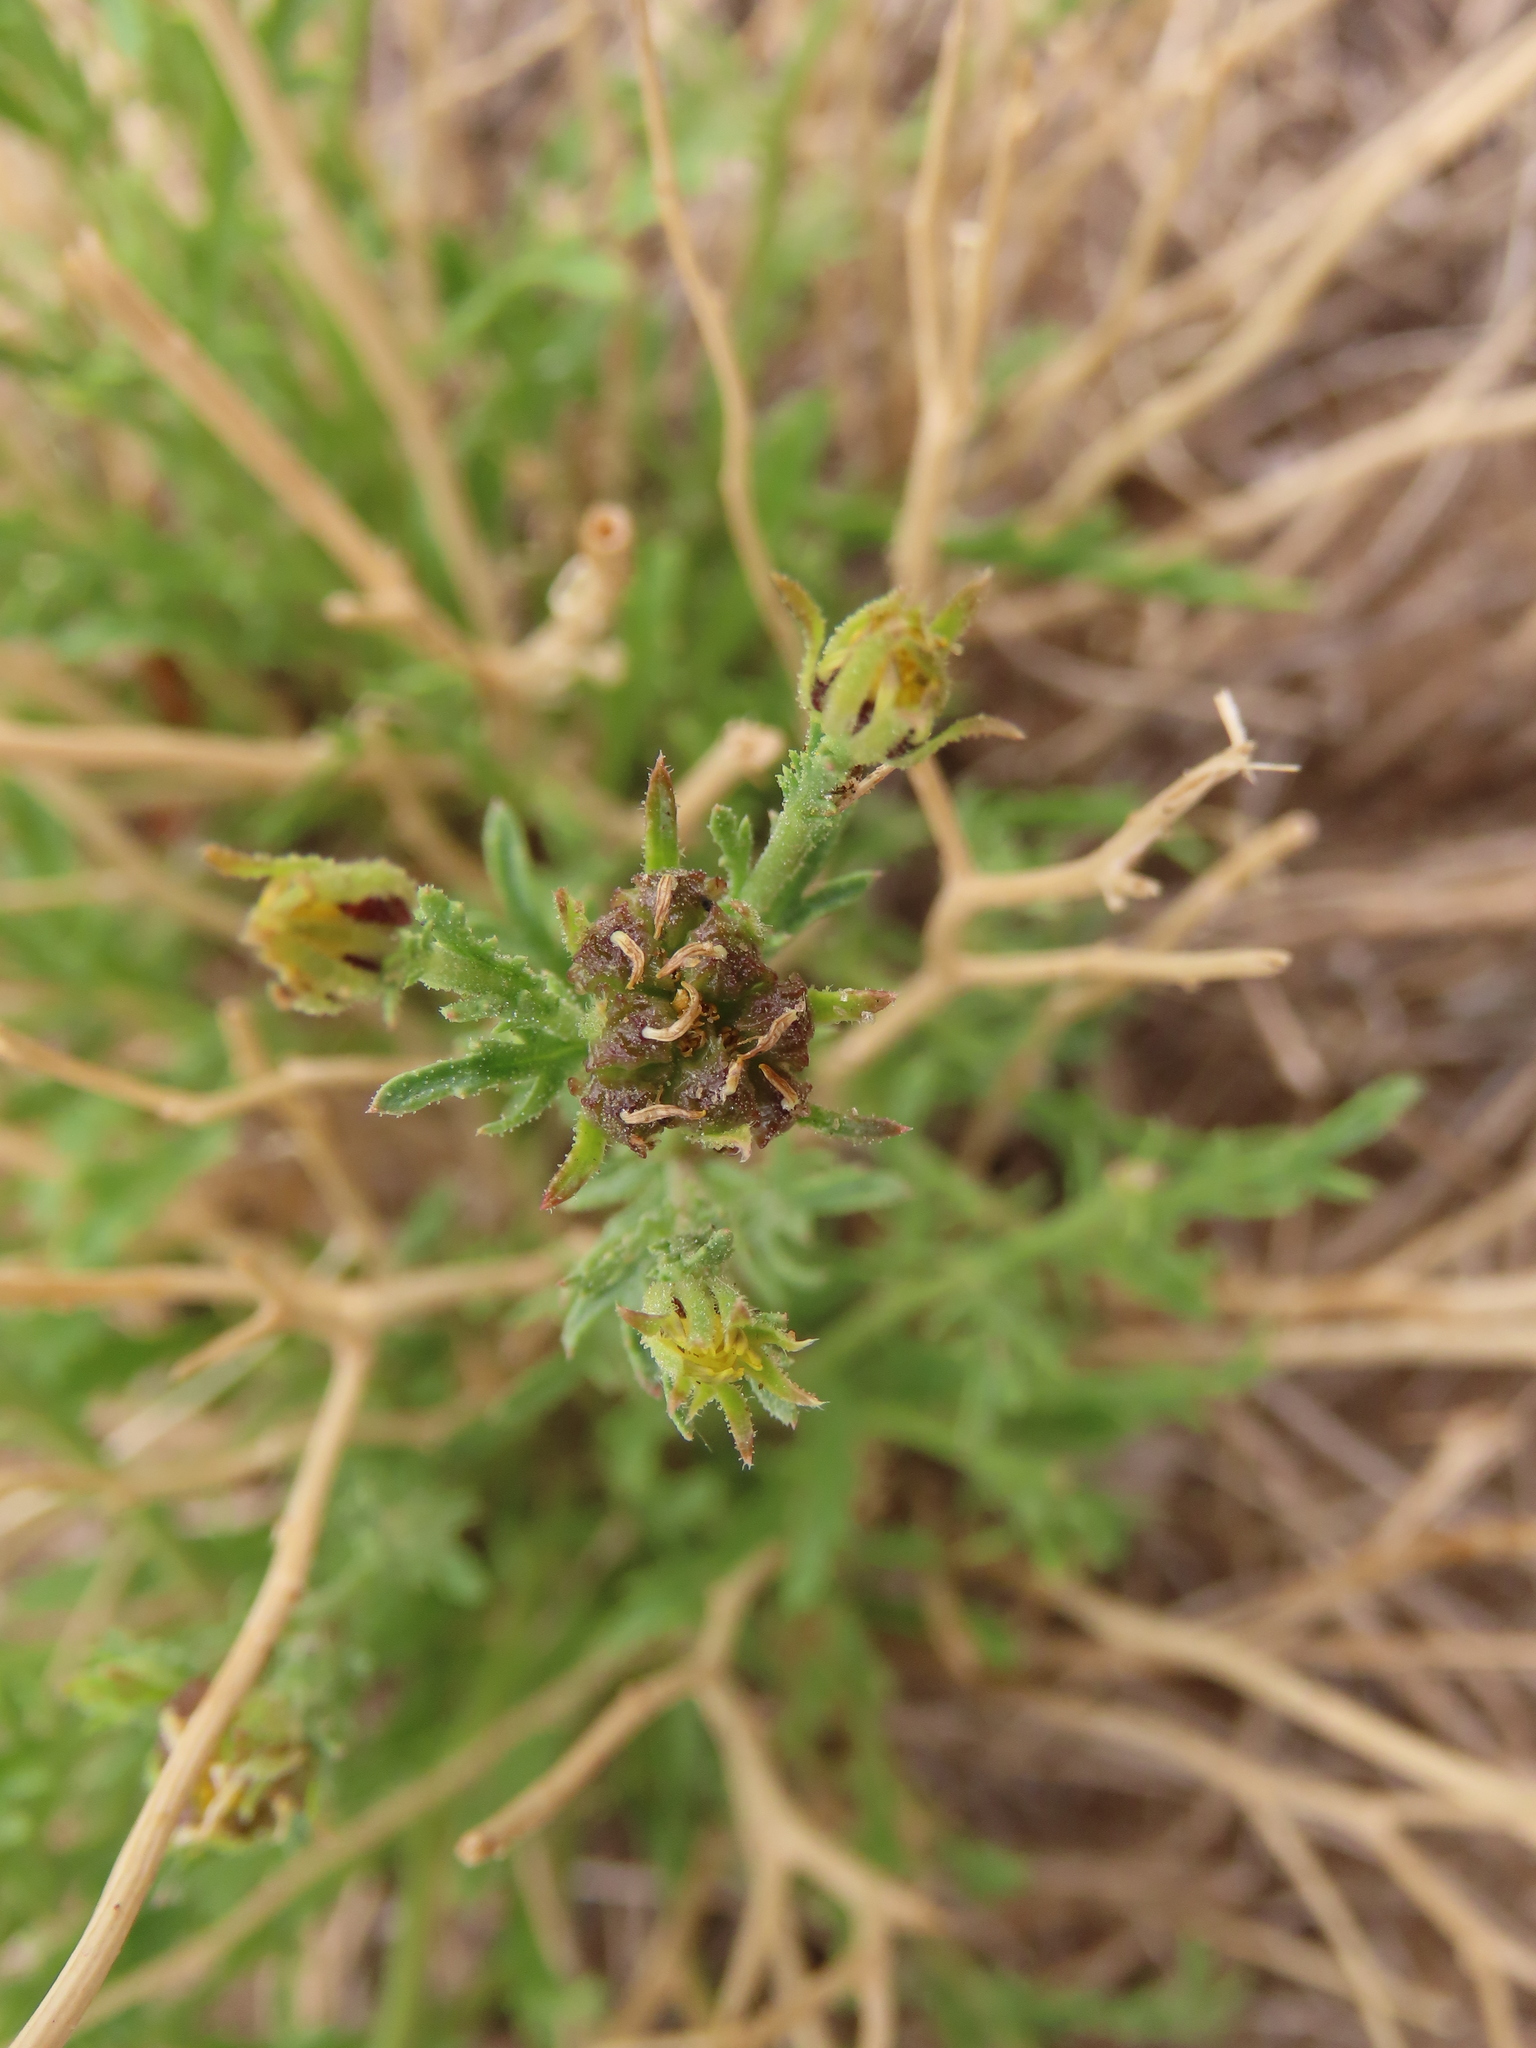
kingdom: Plantae
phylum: Tracheophyta
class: Magnoliopsida
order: Asterales
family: Asteraceae
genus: Osteospermum
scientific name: Osteospermum muricatum
